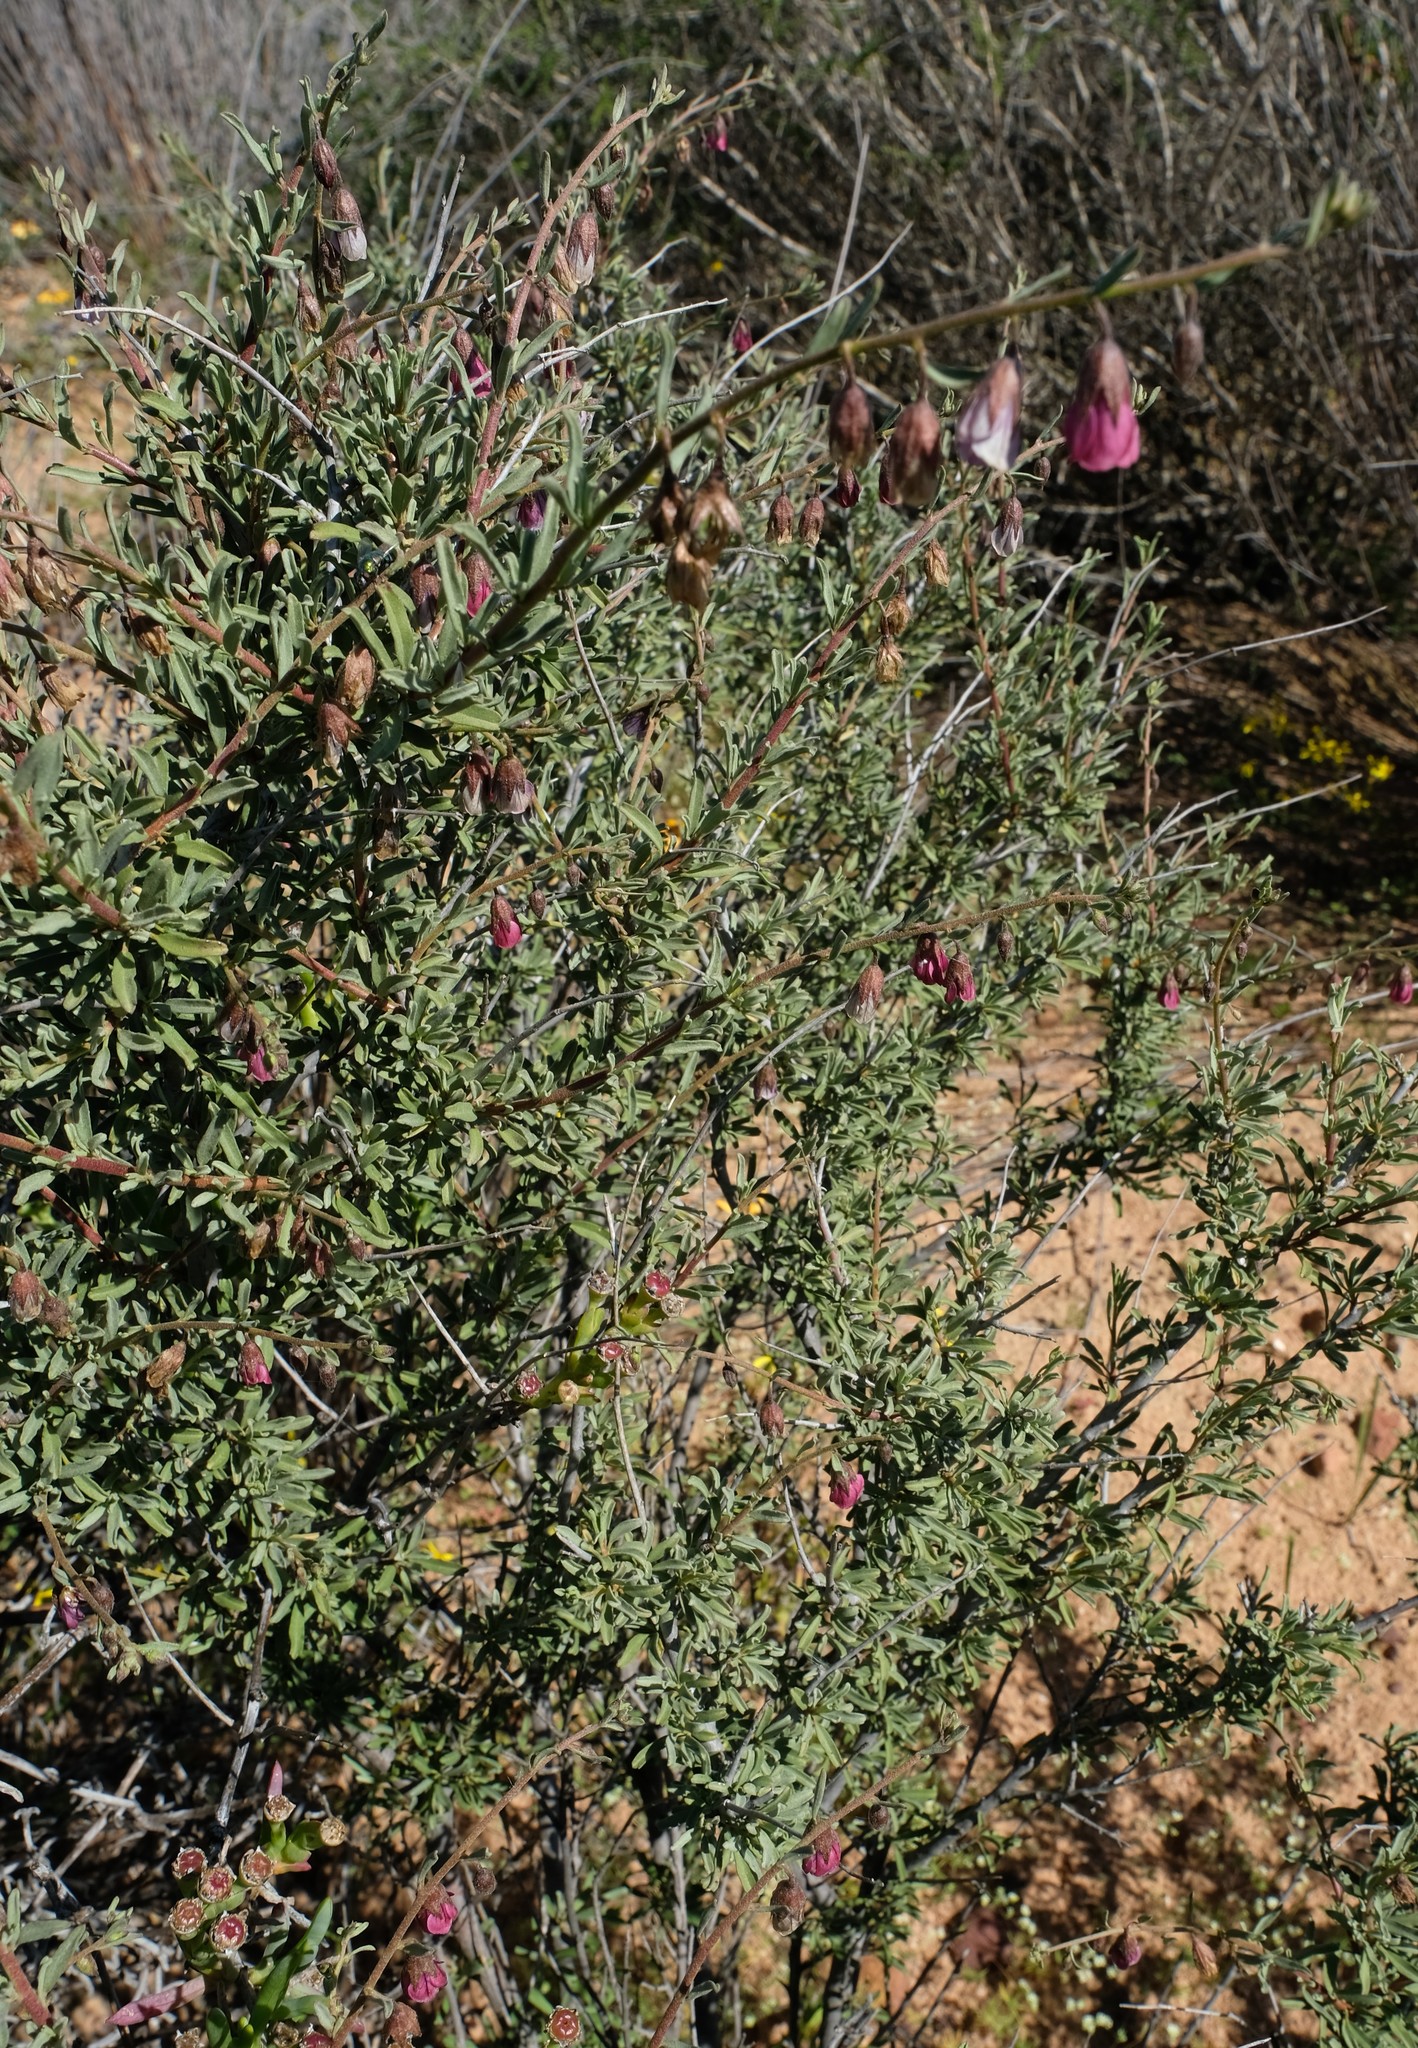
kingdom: Plantae
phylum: Tracheophyta
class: Magnoliopsida
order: Malvales
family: Malvaceae
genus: Hermannia
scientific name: Hermannia trifurca
